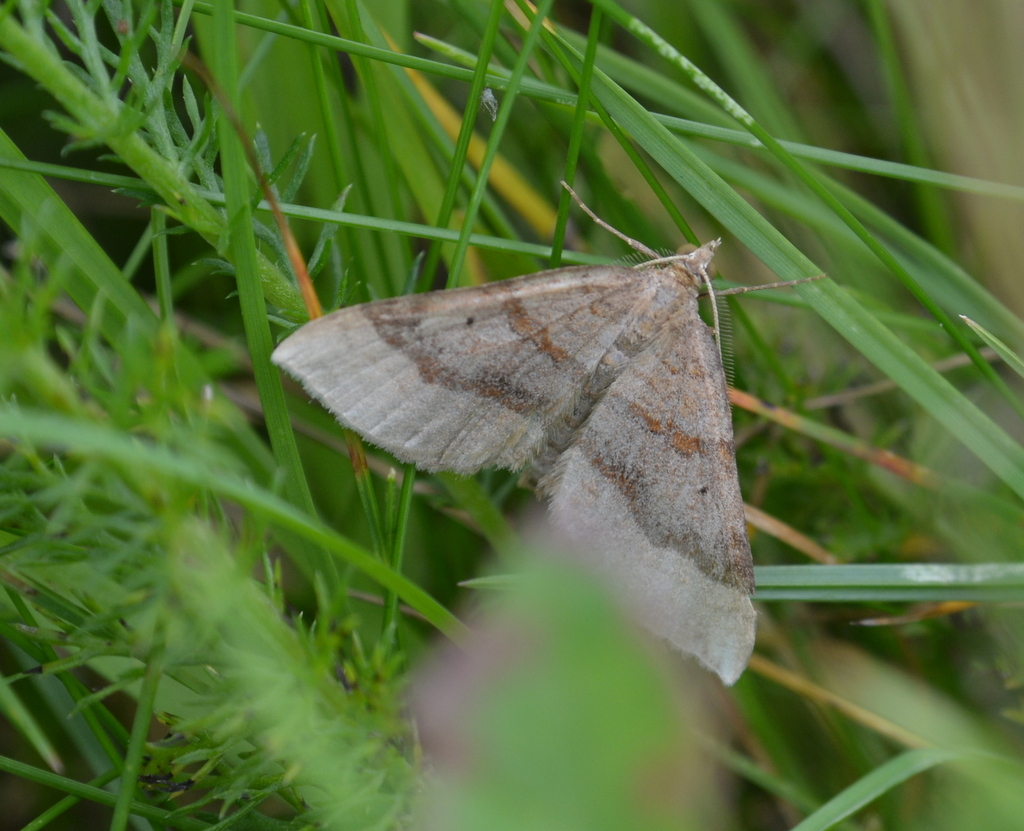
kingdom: Animalia
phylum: Arthropoda
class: Insecta
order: Lepidoptera
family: Geometridae
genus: Scotopteryx
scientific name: Scotopteryx chenopodiata
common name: Shaded broad-bar
